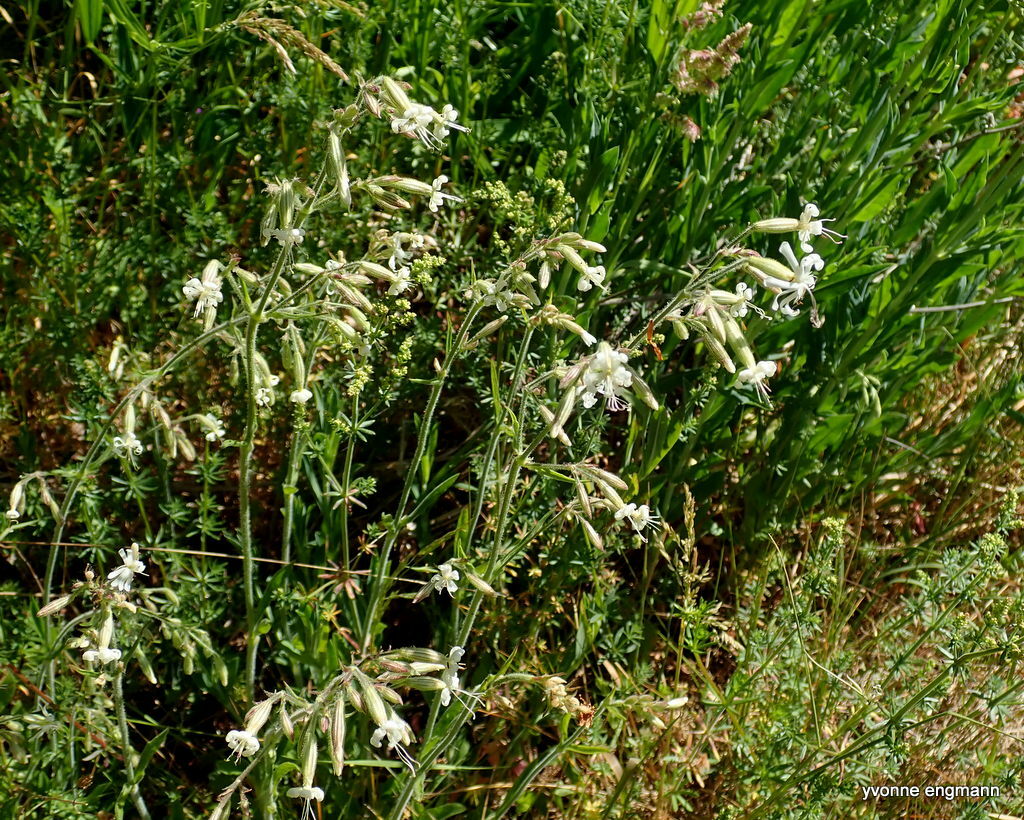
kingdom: Plantae
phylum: Tracheophyta
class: Magnoliopsida
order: Caryophyllales
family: Caryophyllaceae
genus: Silene
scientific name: Silene nutans
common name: Nottingham catchfly
